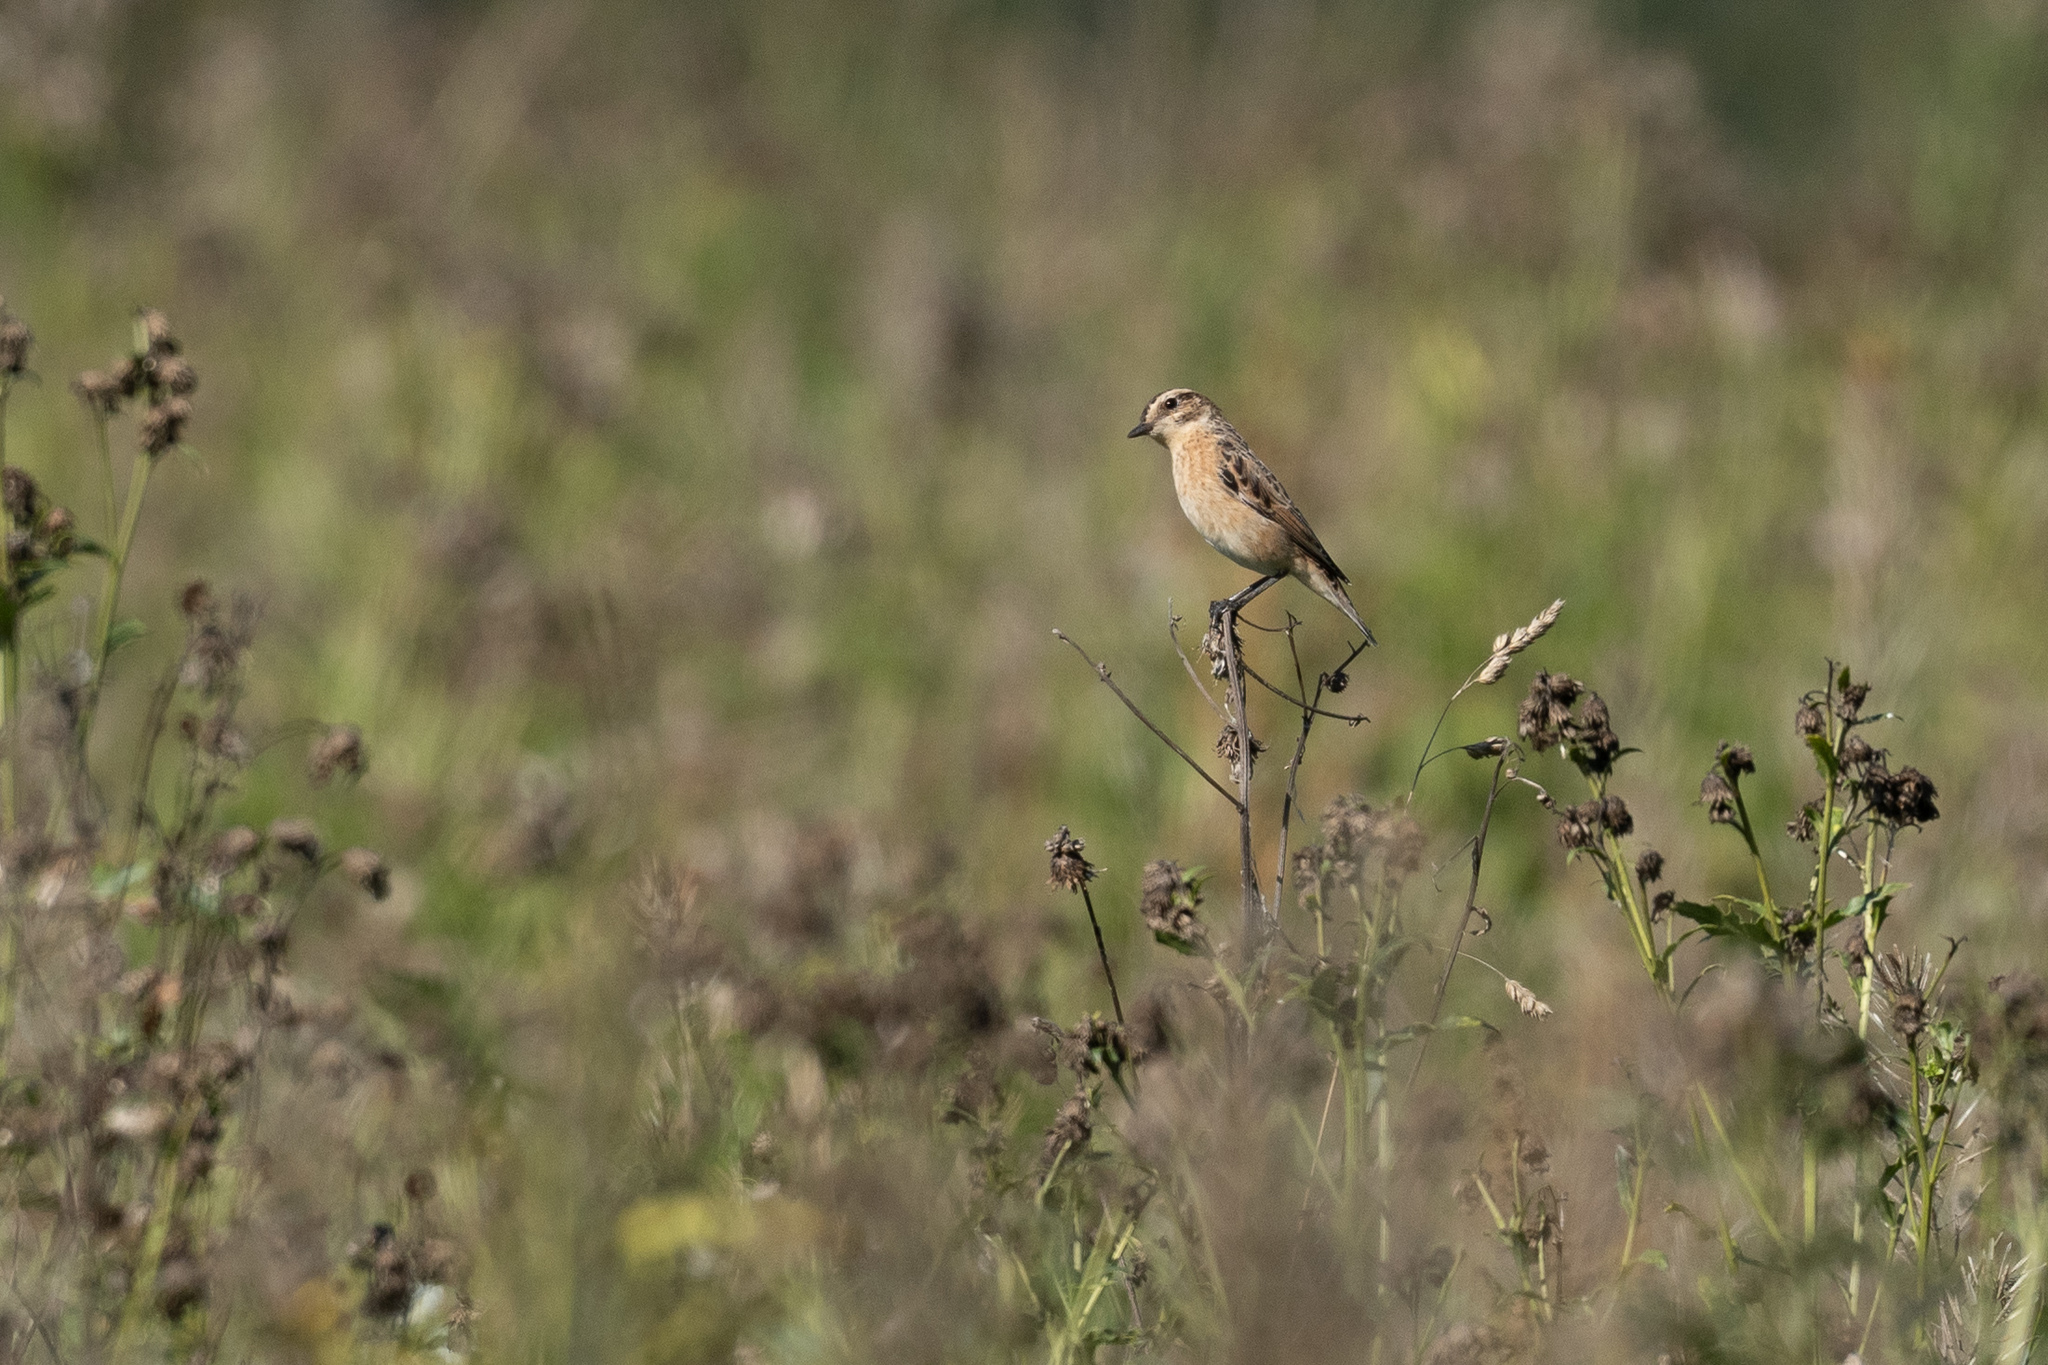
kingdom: Animalia
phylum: Chordata
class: Aves
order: Passeriformes
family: Muscicapidae
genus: Saxicola
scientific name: Saxicola rubetra
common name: Whinchat
